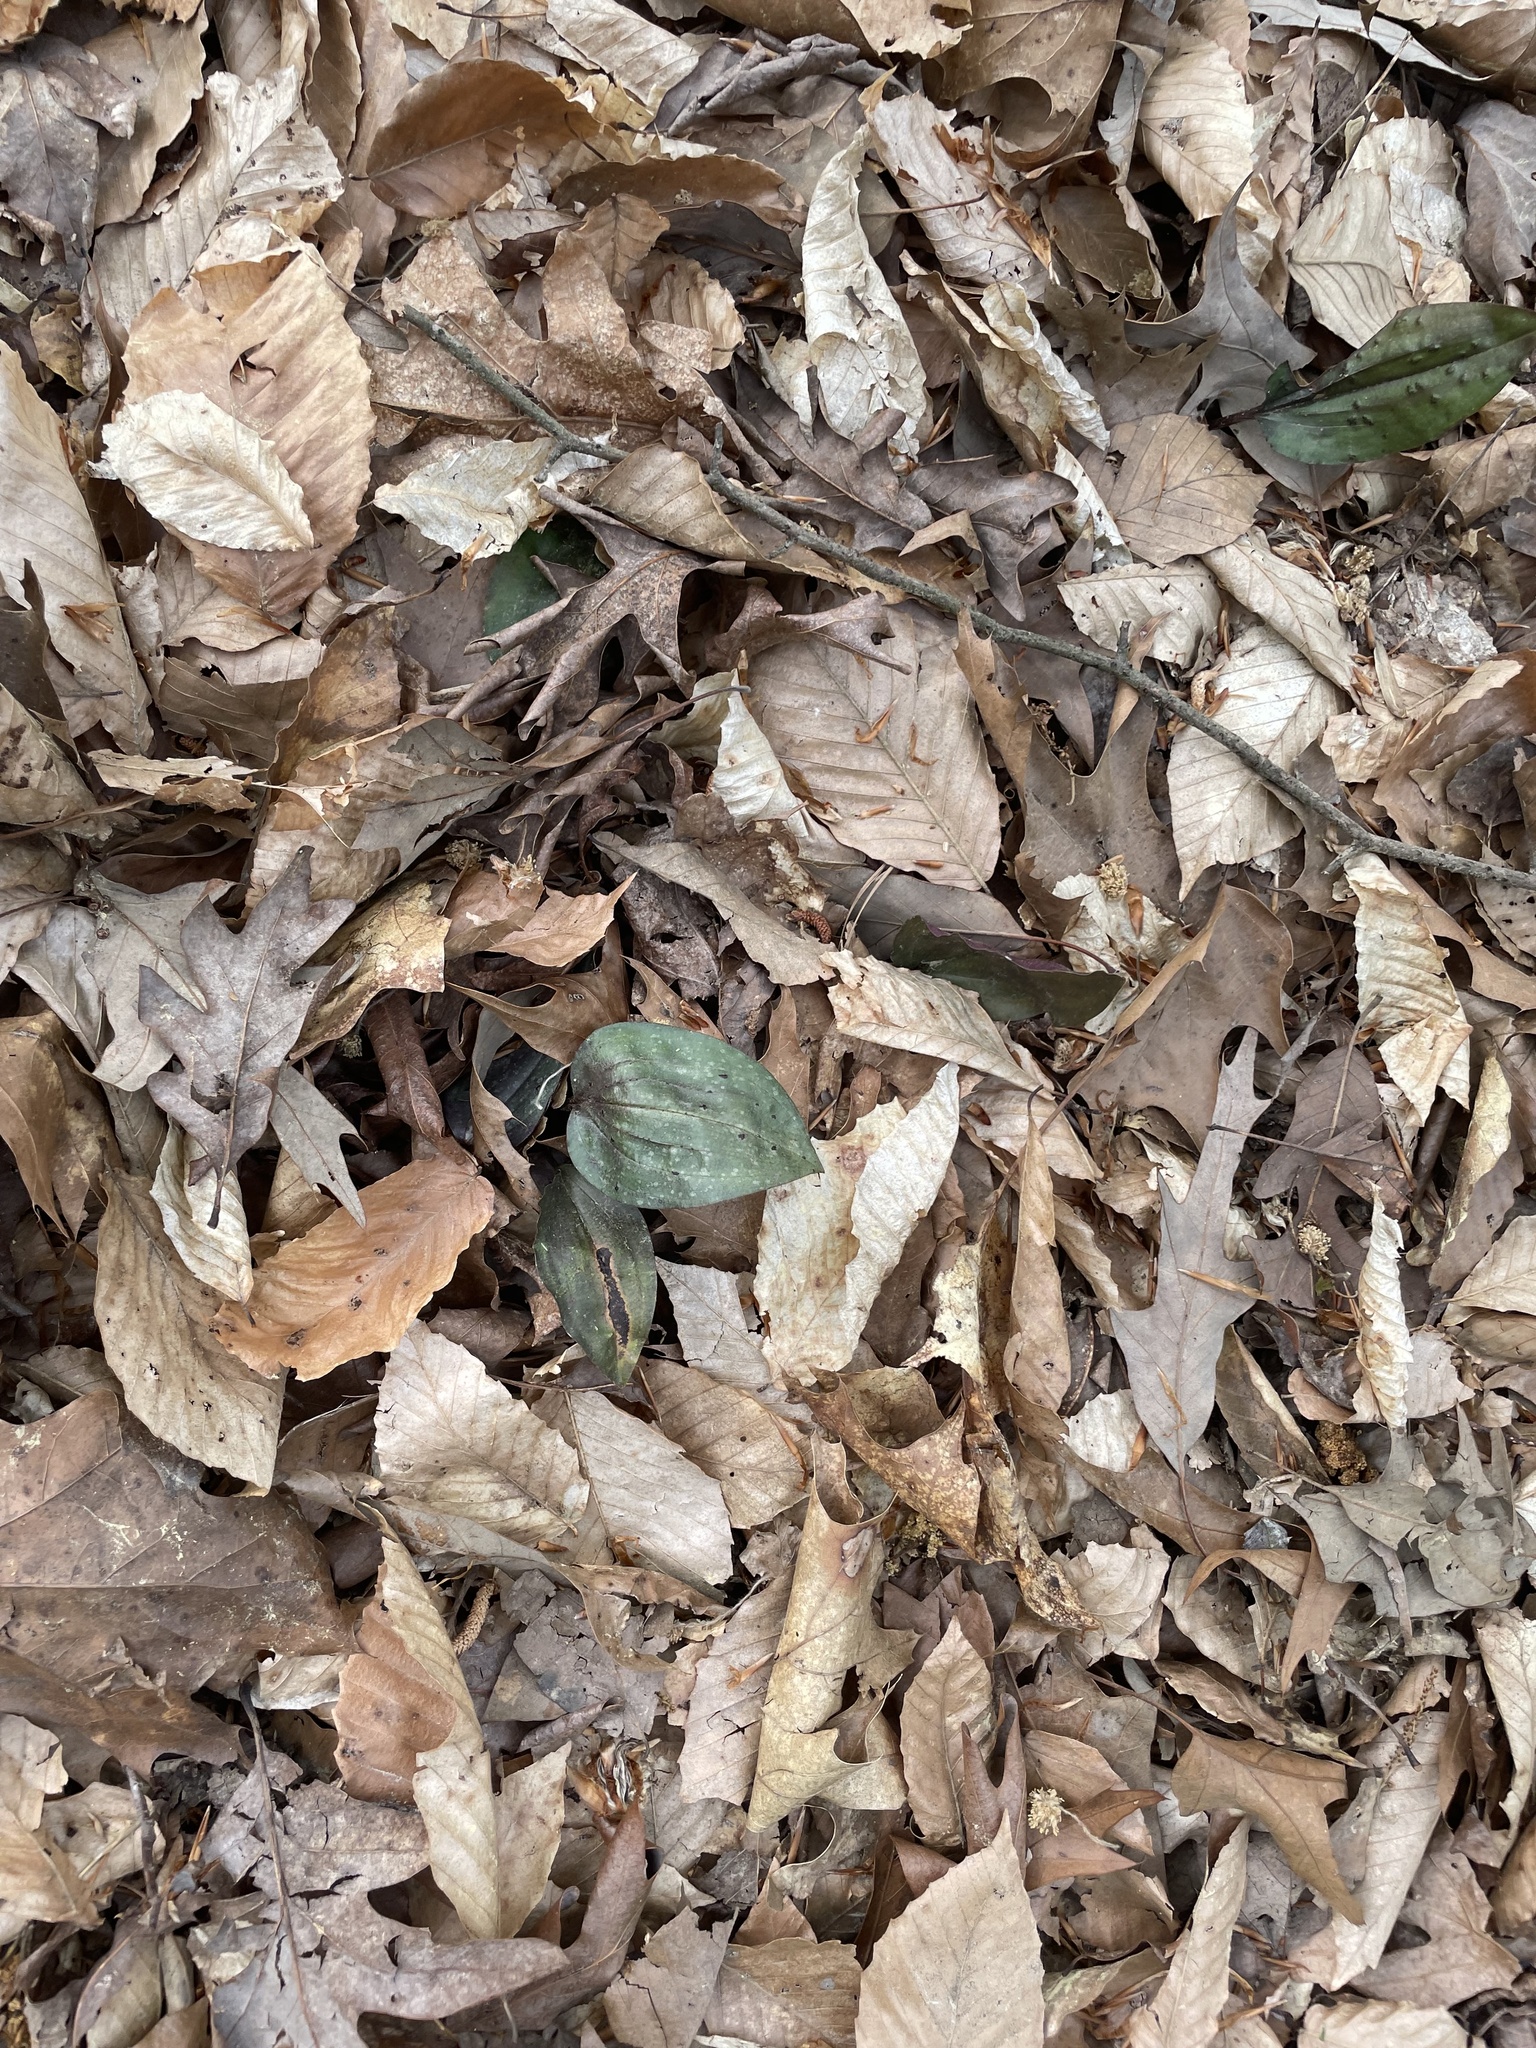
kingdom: Plantae
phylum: Tracheophyta
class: Liliopsida
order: Asparagales
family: Orchidaceae
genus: Tipularia
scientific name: Tipularia discolor
